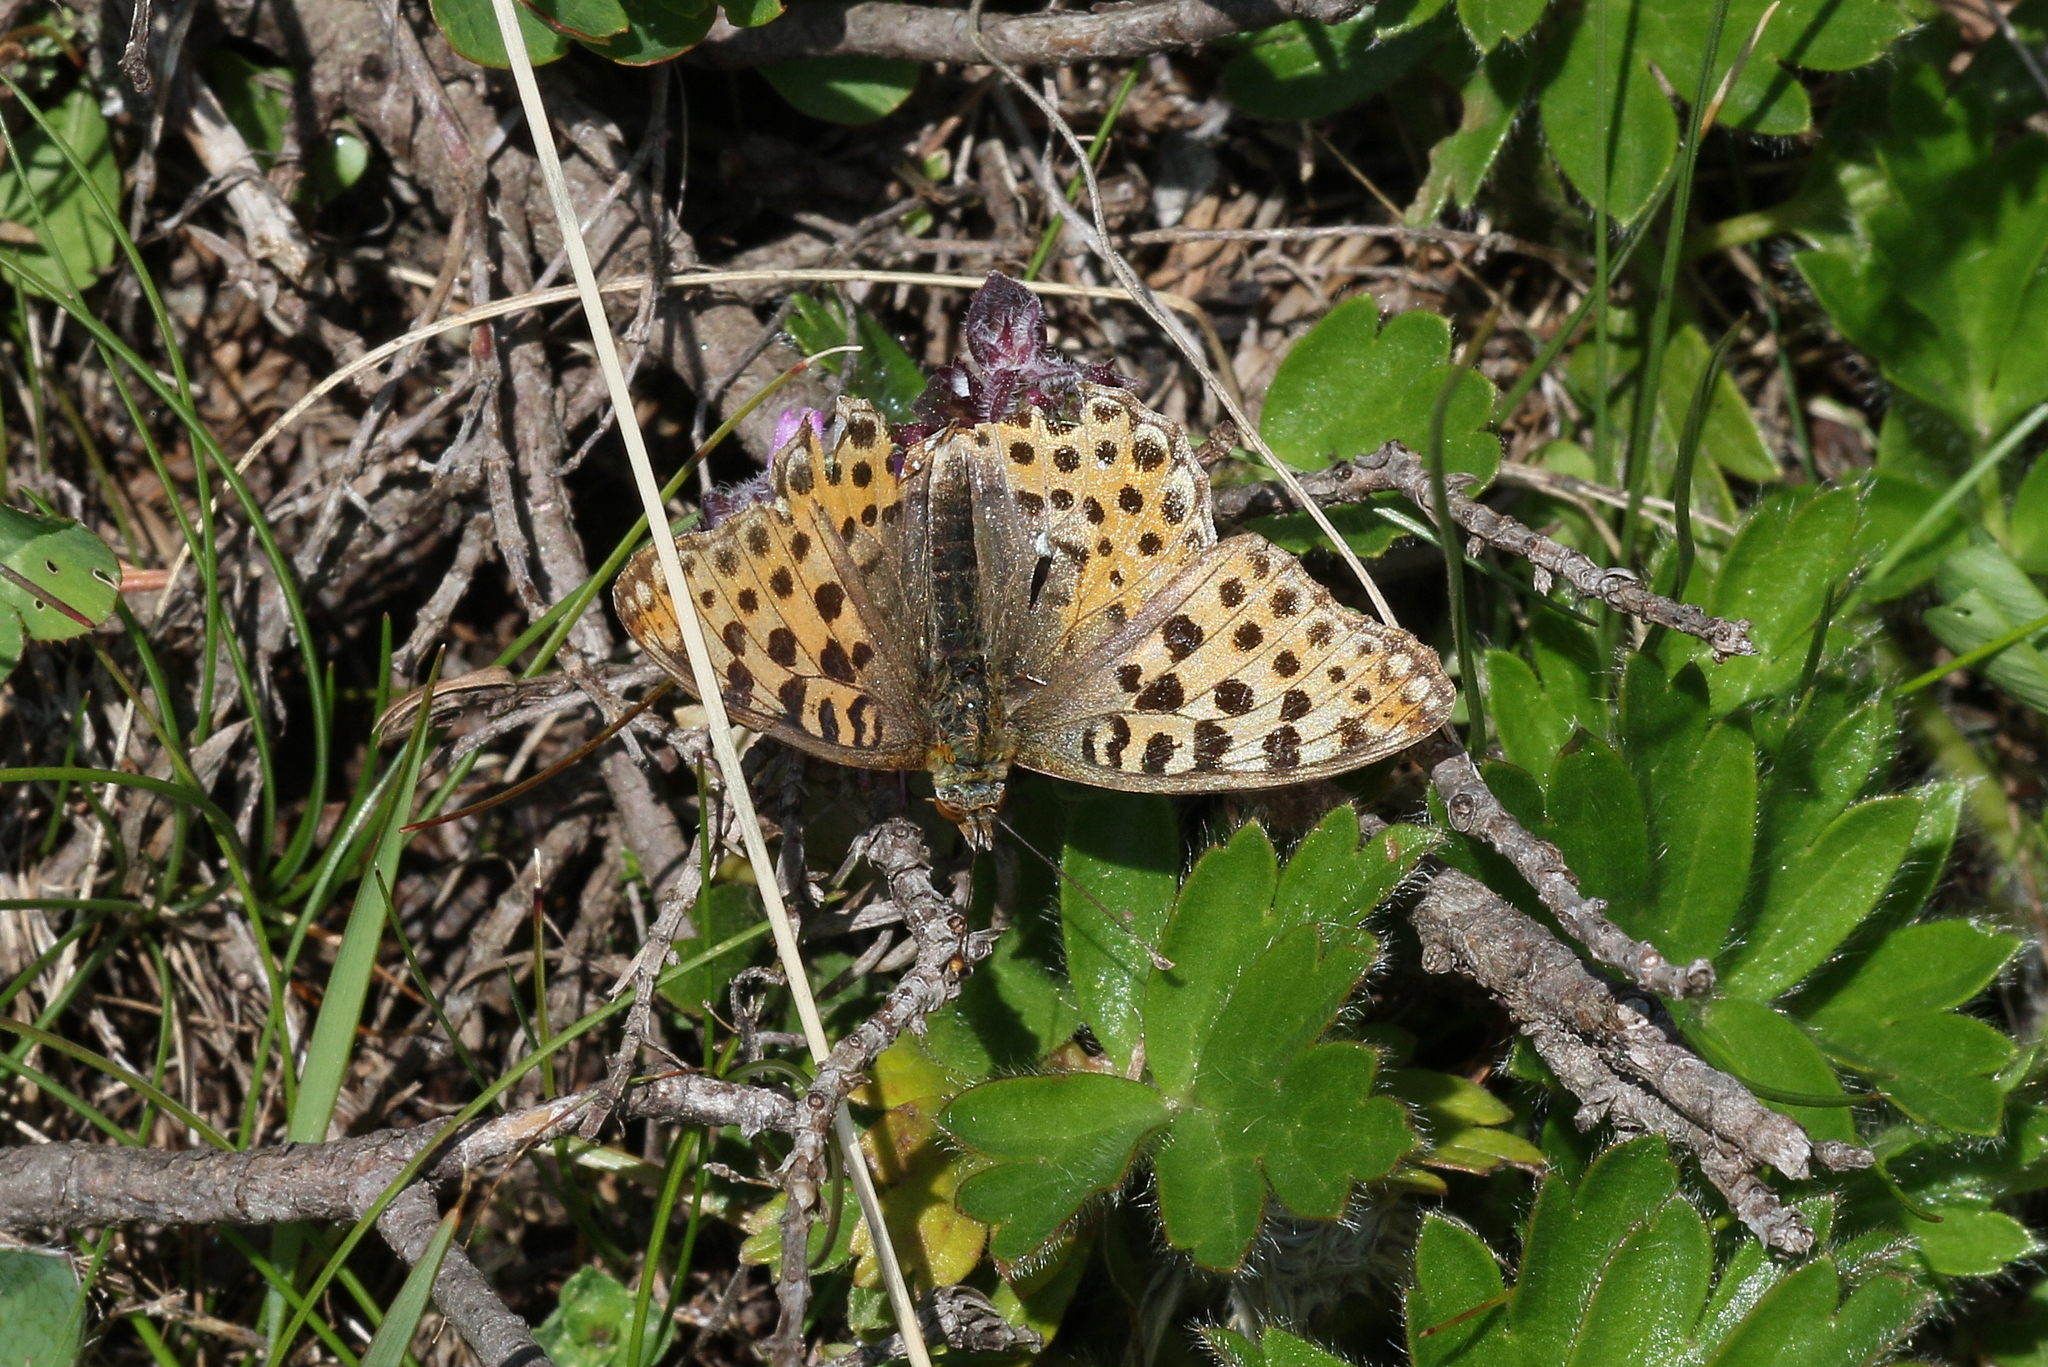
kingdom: Animalia
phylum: Arthropoda
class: Insecta
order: Lepidoptera
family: Nymphalidae
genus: Issoria
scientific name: Issoria lathonia
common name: Queen of spain fritillary
